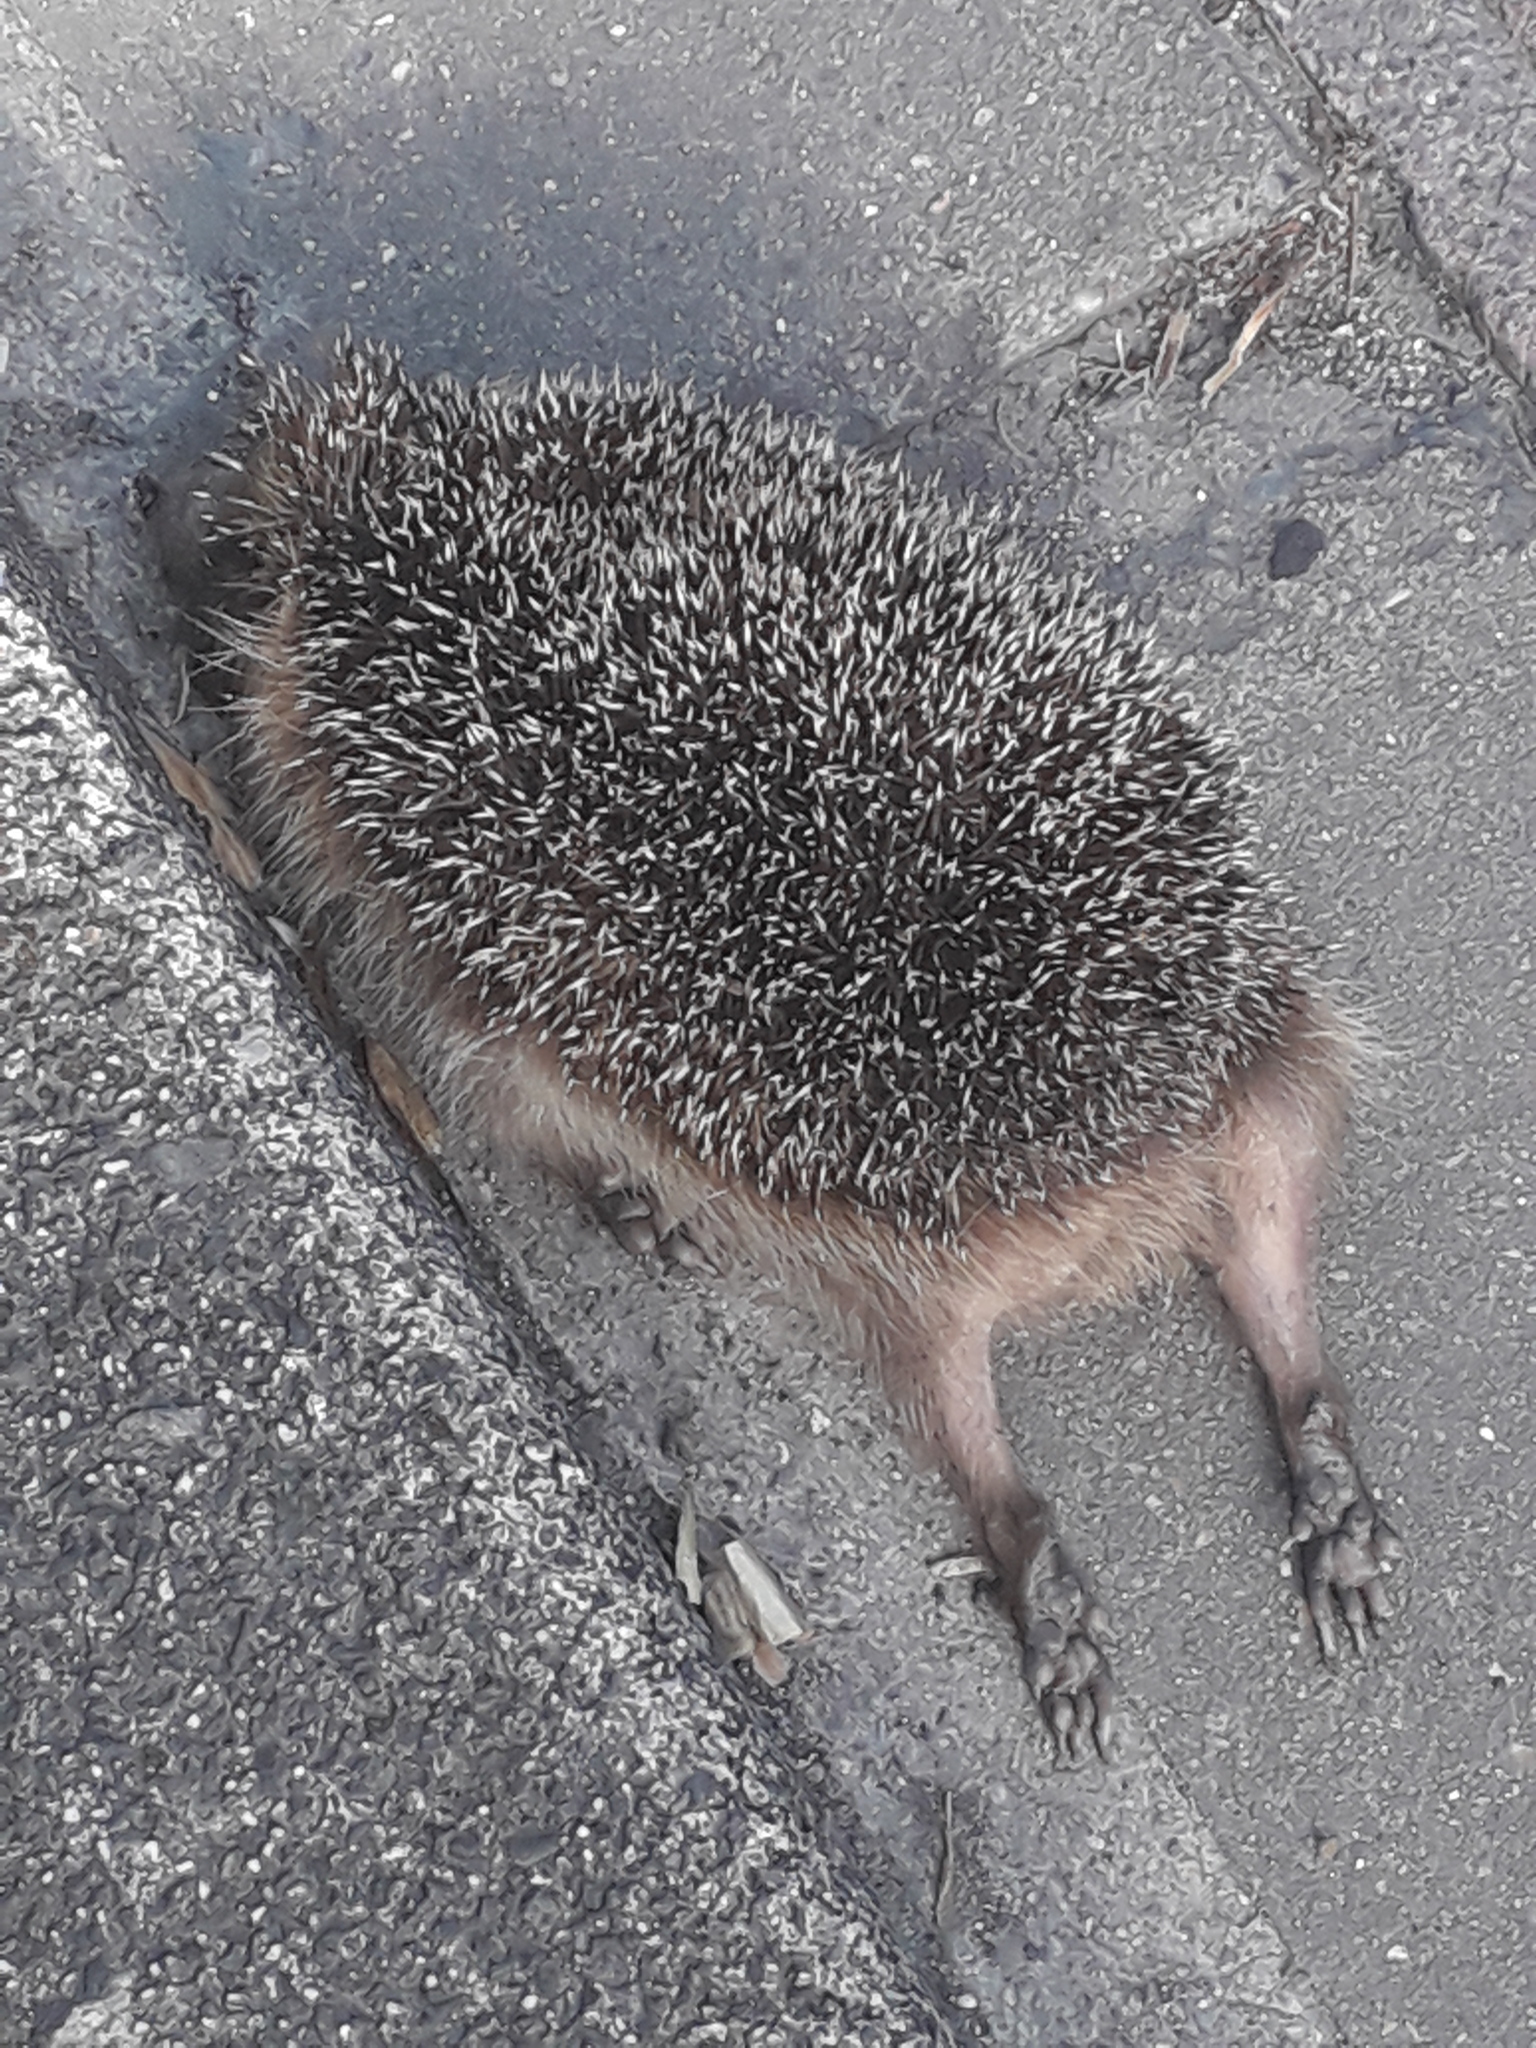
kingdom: Animalia
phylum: Chordata
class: Mammalia
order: Erinaceomorpha
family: Erinaceidae
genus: Erinaceus
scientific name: Erinaceus europaeus
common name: West european hedgehog
